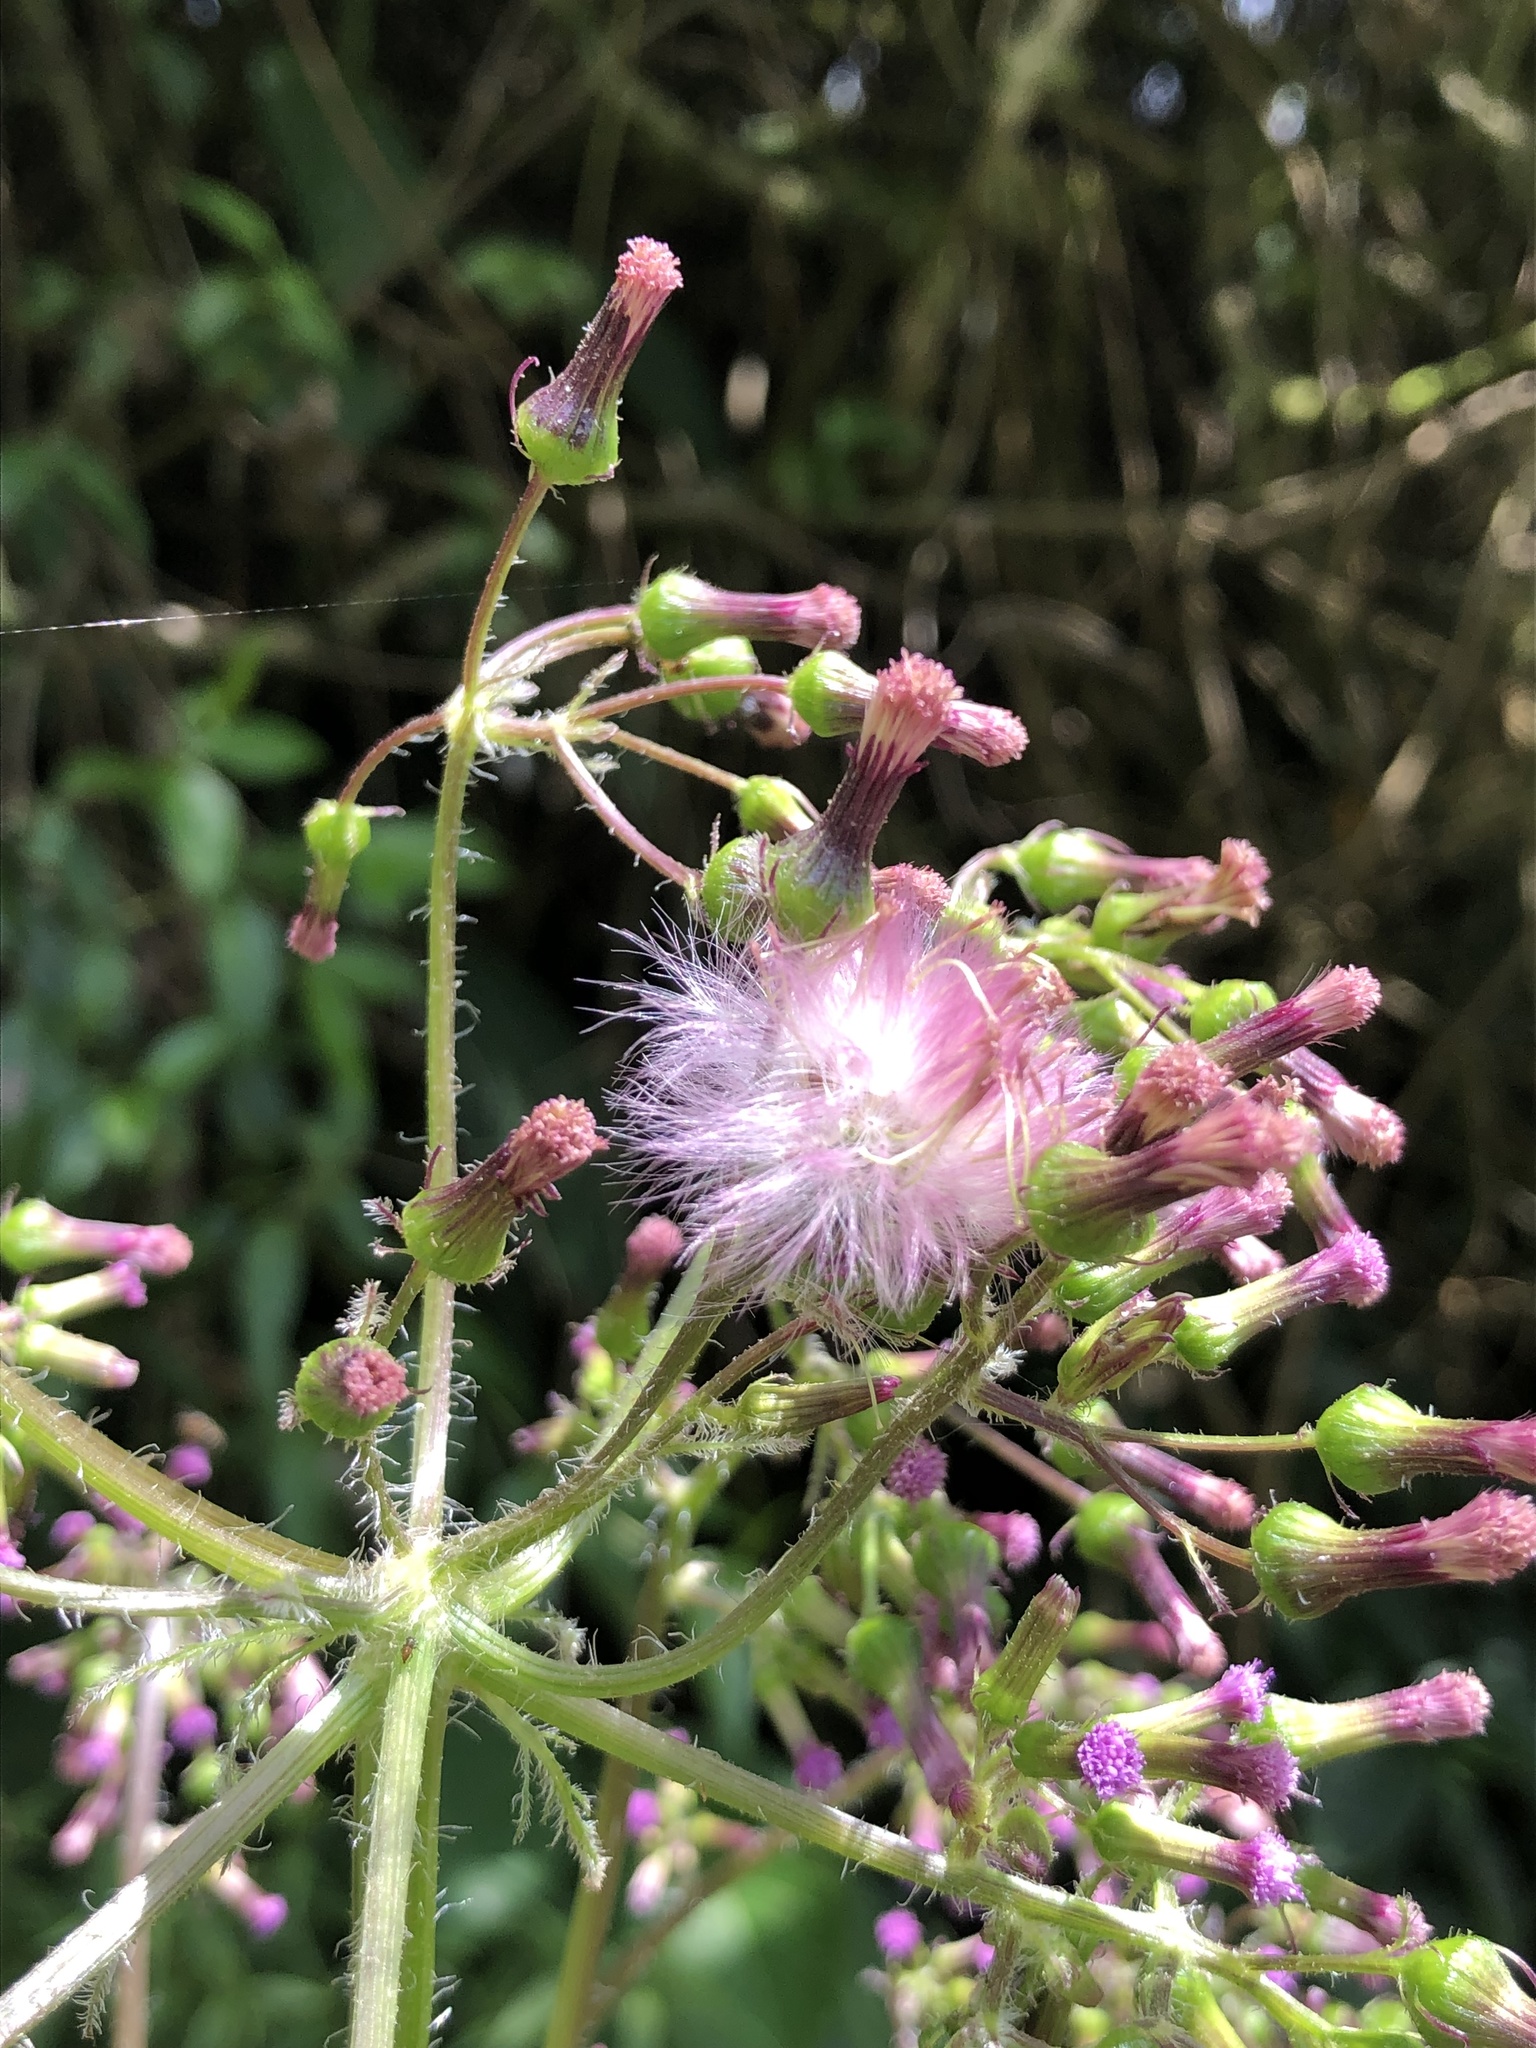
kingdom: Plantae
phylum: Tracheophyta
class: Magnoliopsida
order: Asterales
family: Asteraceae
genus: Erechtites
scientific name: Erechtites valerianifolius
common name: Tropical burnweed
